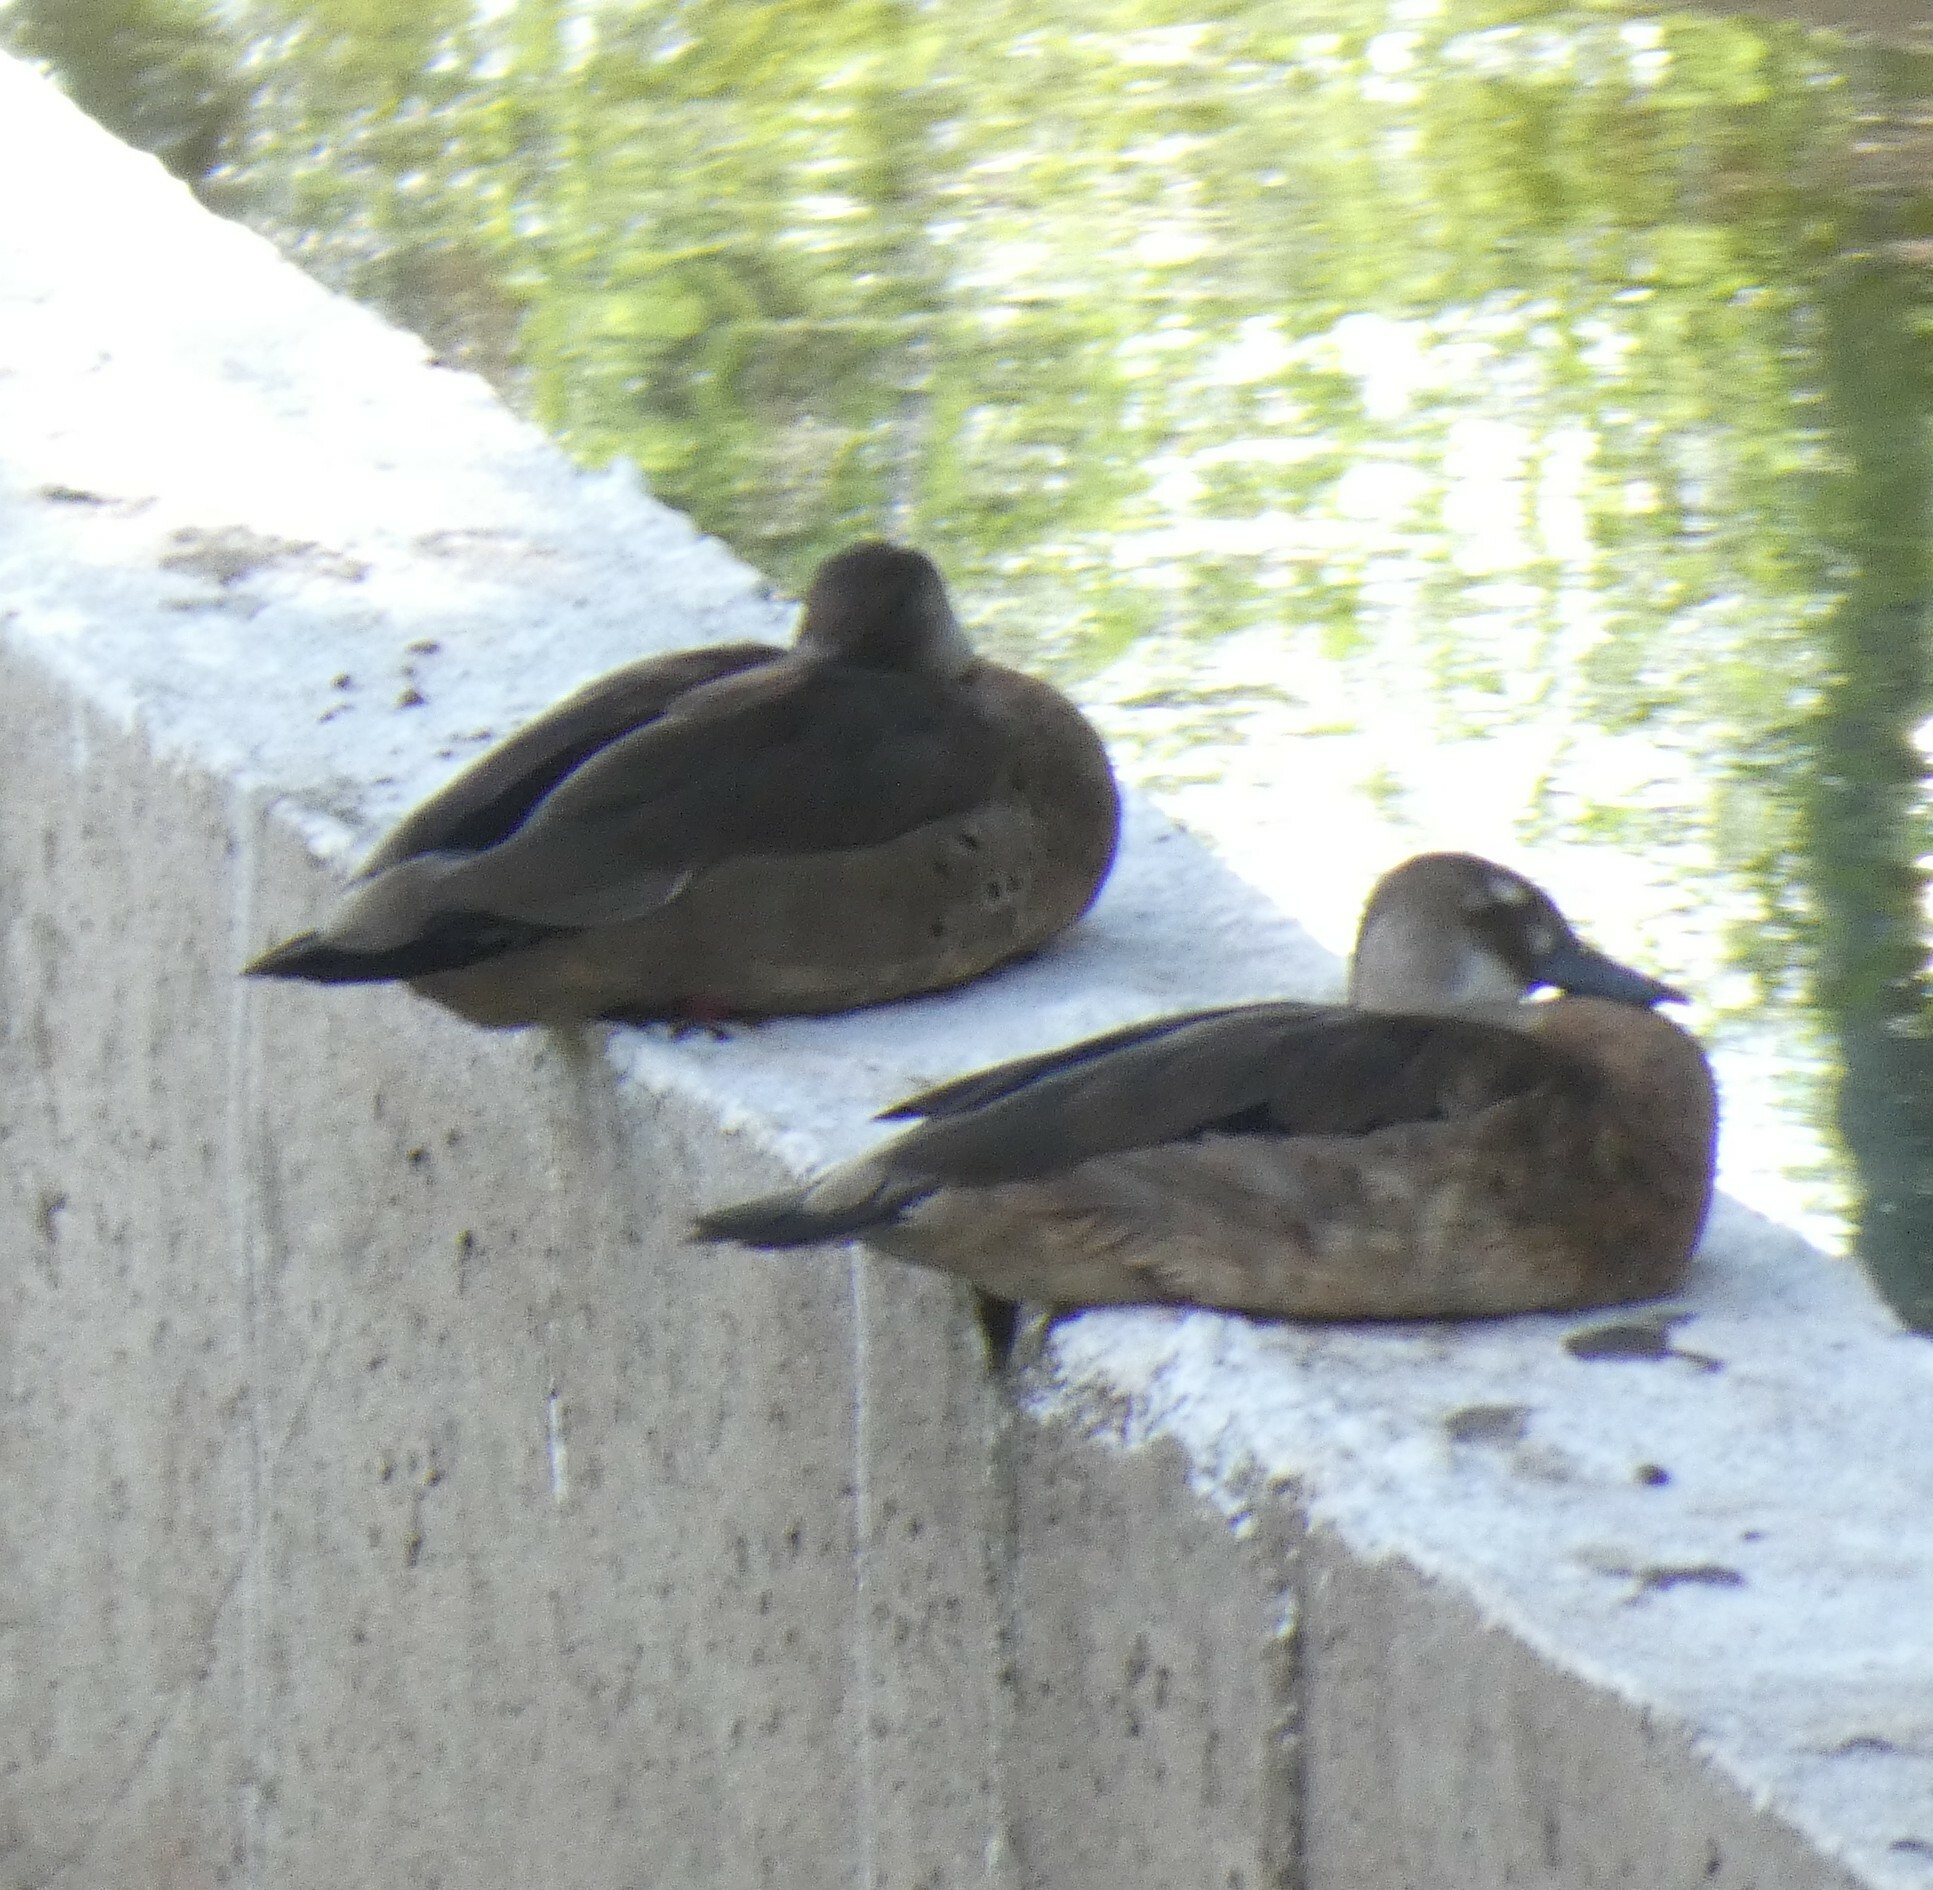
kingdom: Animalia
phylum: Chordata
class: Aves
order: Anseriformes
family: Anatidae
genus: Amazonetta
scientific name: Amazonetta brasiliensis
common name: Brazilian teal
